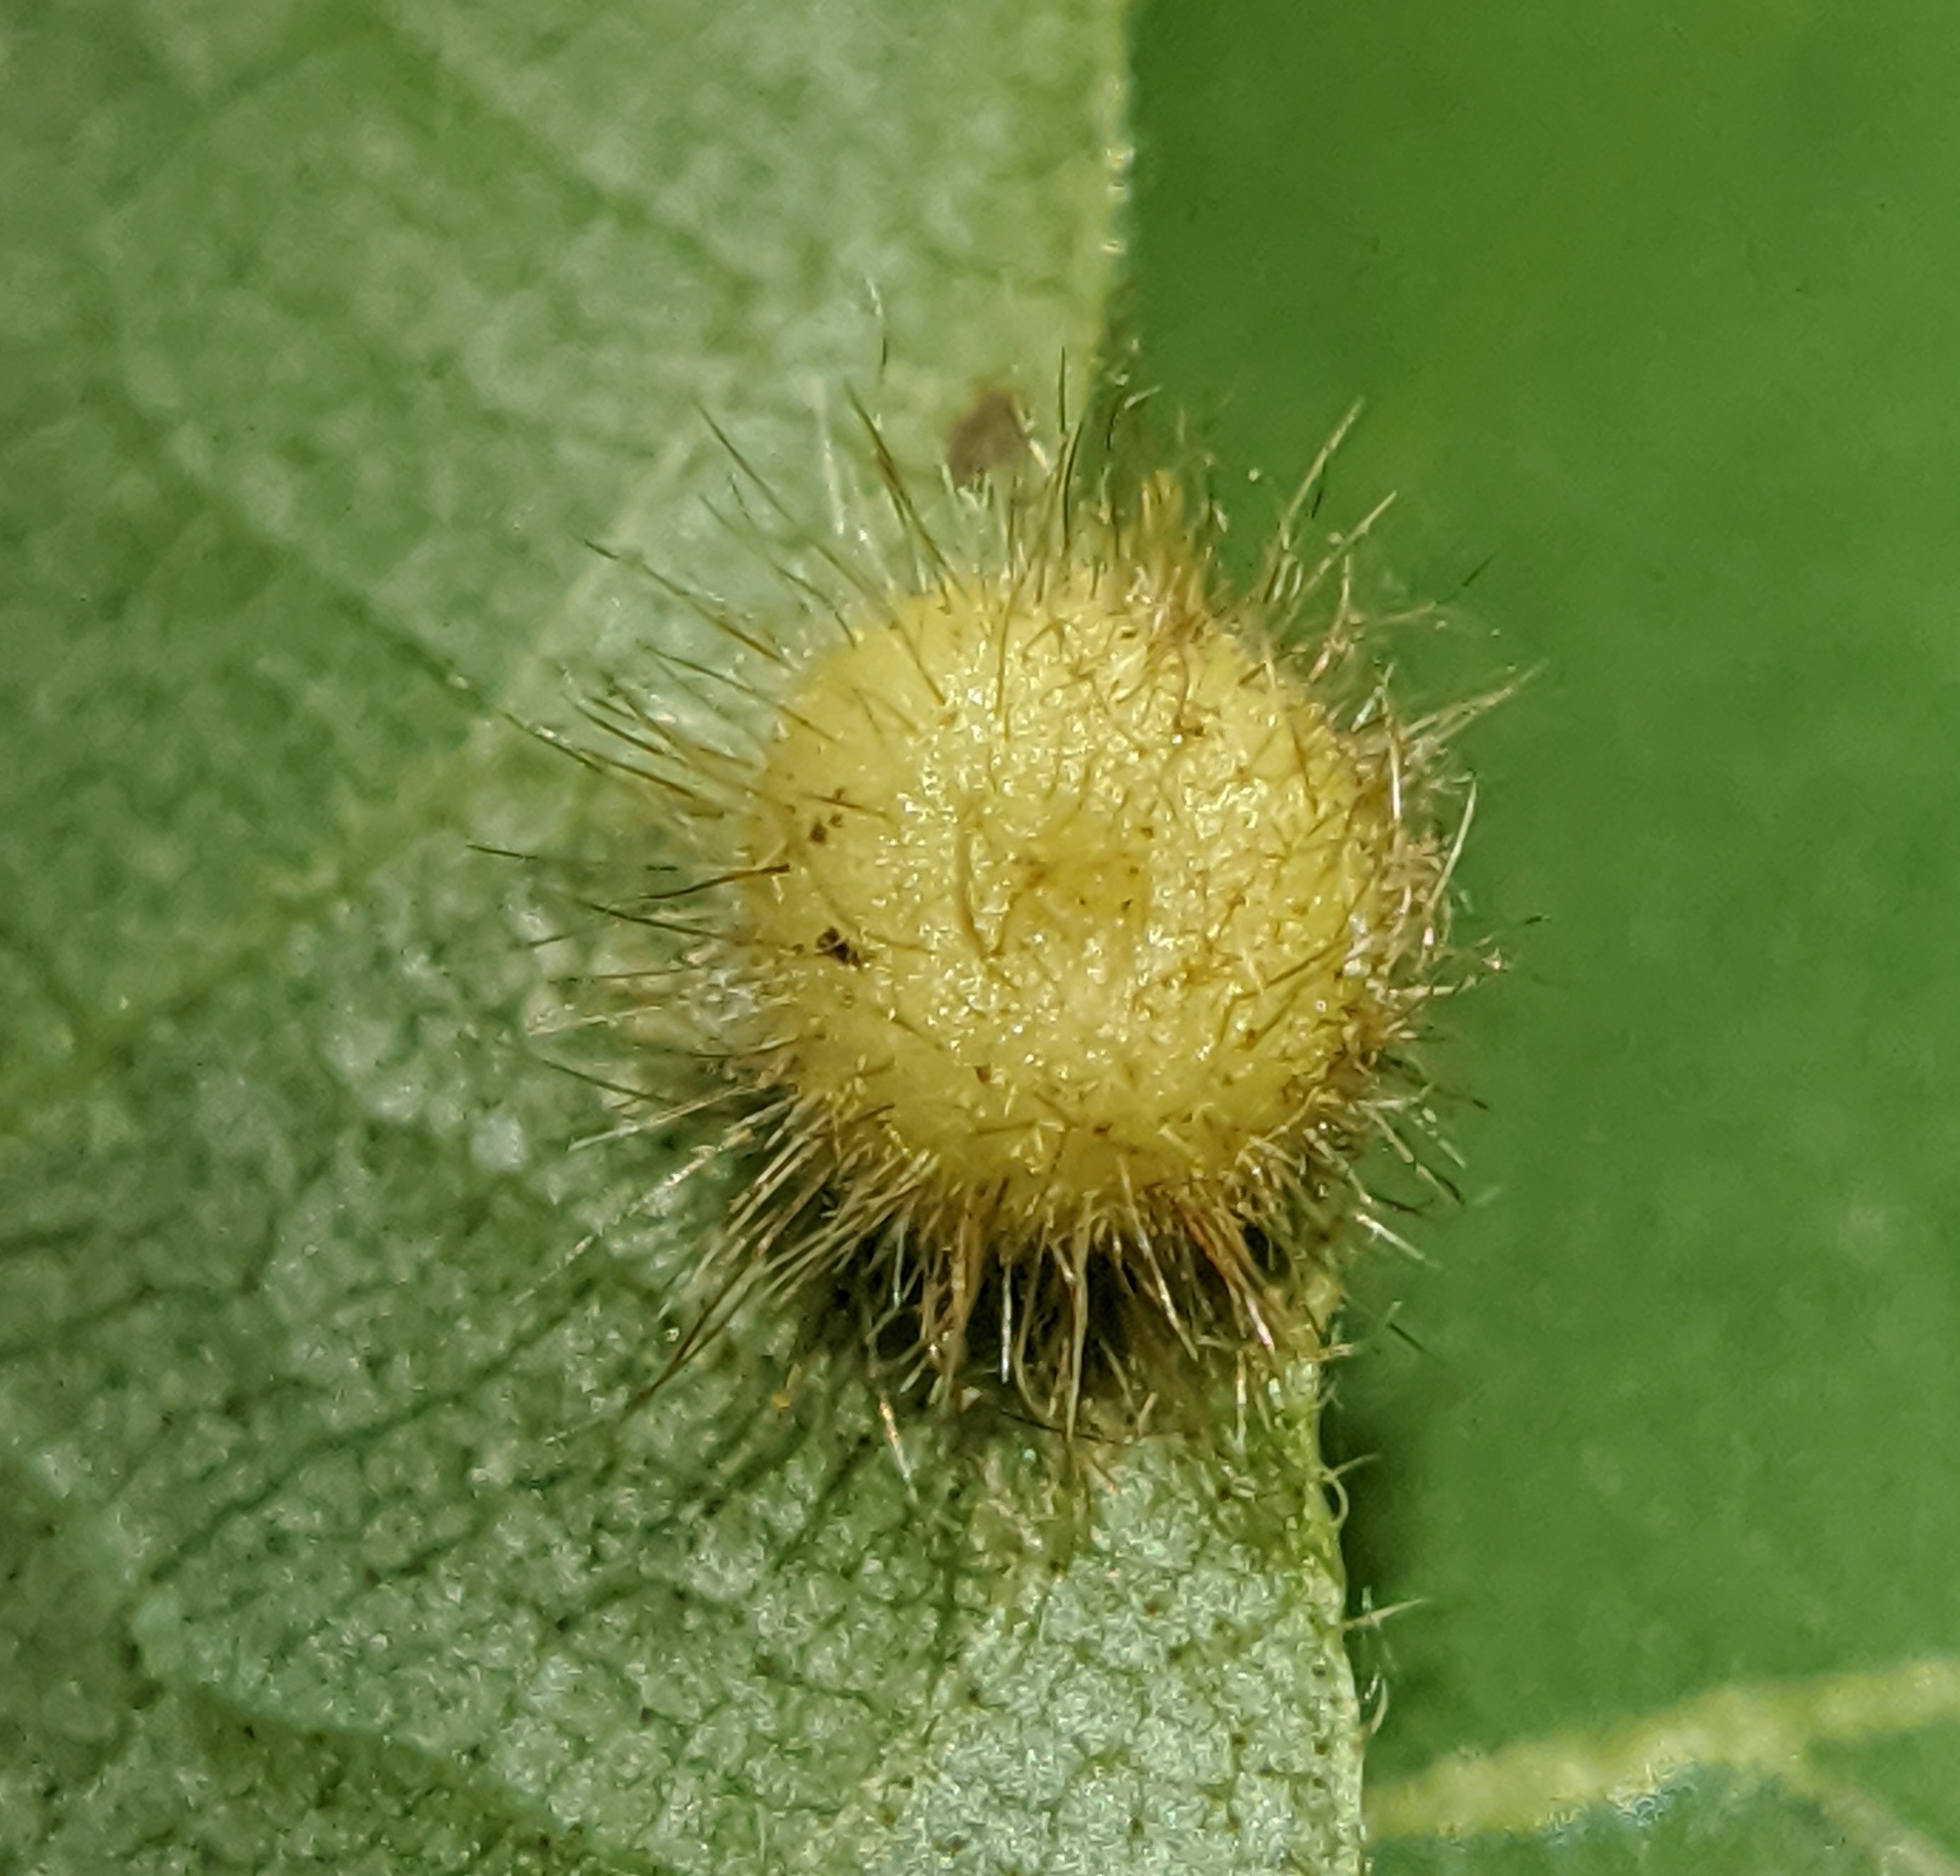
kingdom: Animalia
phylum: Arthropoda
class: Insecta
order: Diptera
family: Cecidomyiidae
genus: Caryomyia
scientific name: Caryomyia thompsoni
